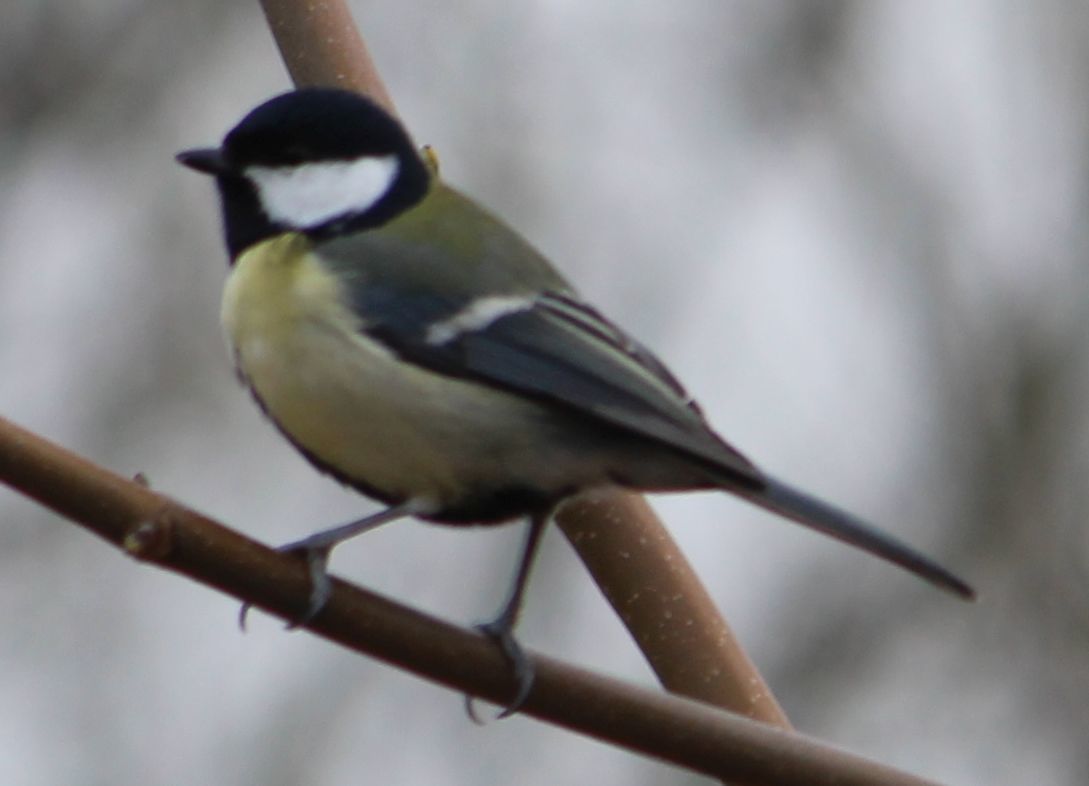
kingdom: Animalia
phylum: Chordata
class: Aves
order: Passeriformes
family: Paridae
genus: Parus
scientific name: Parus major
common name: Great tit
